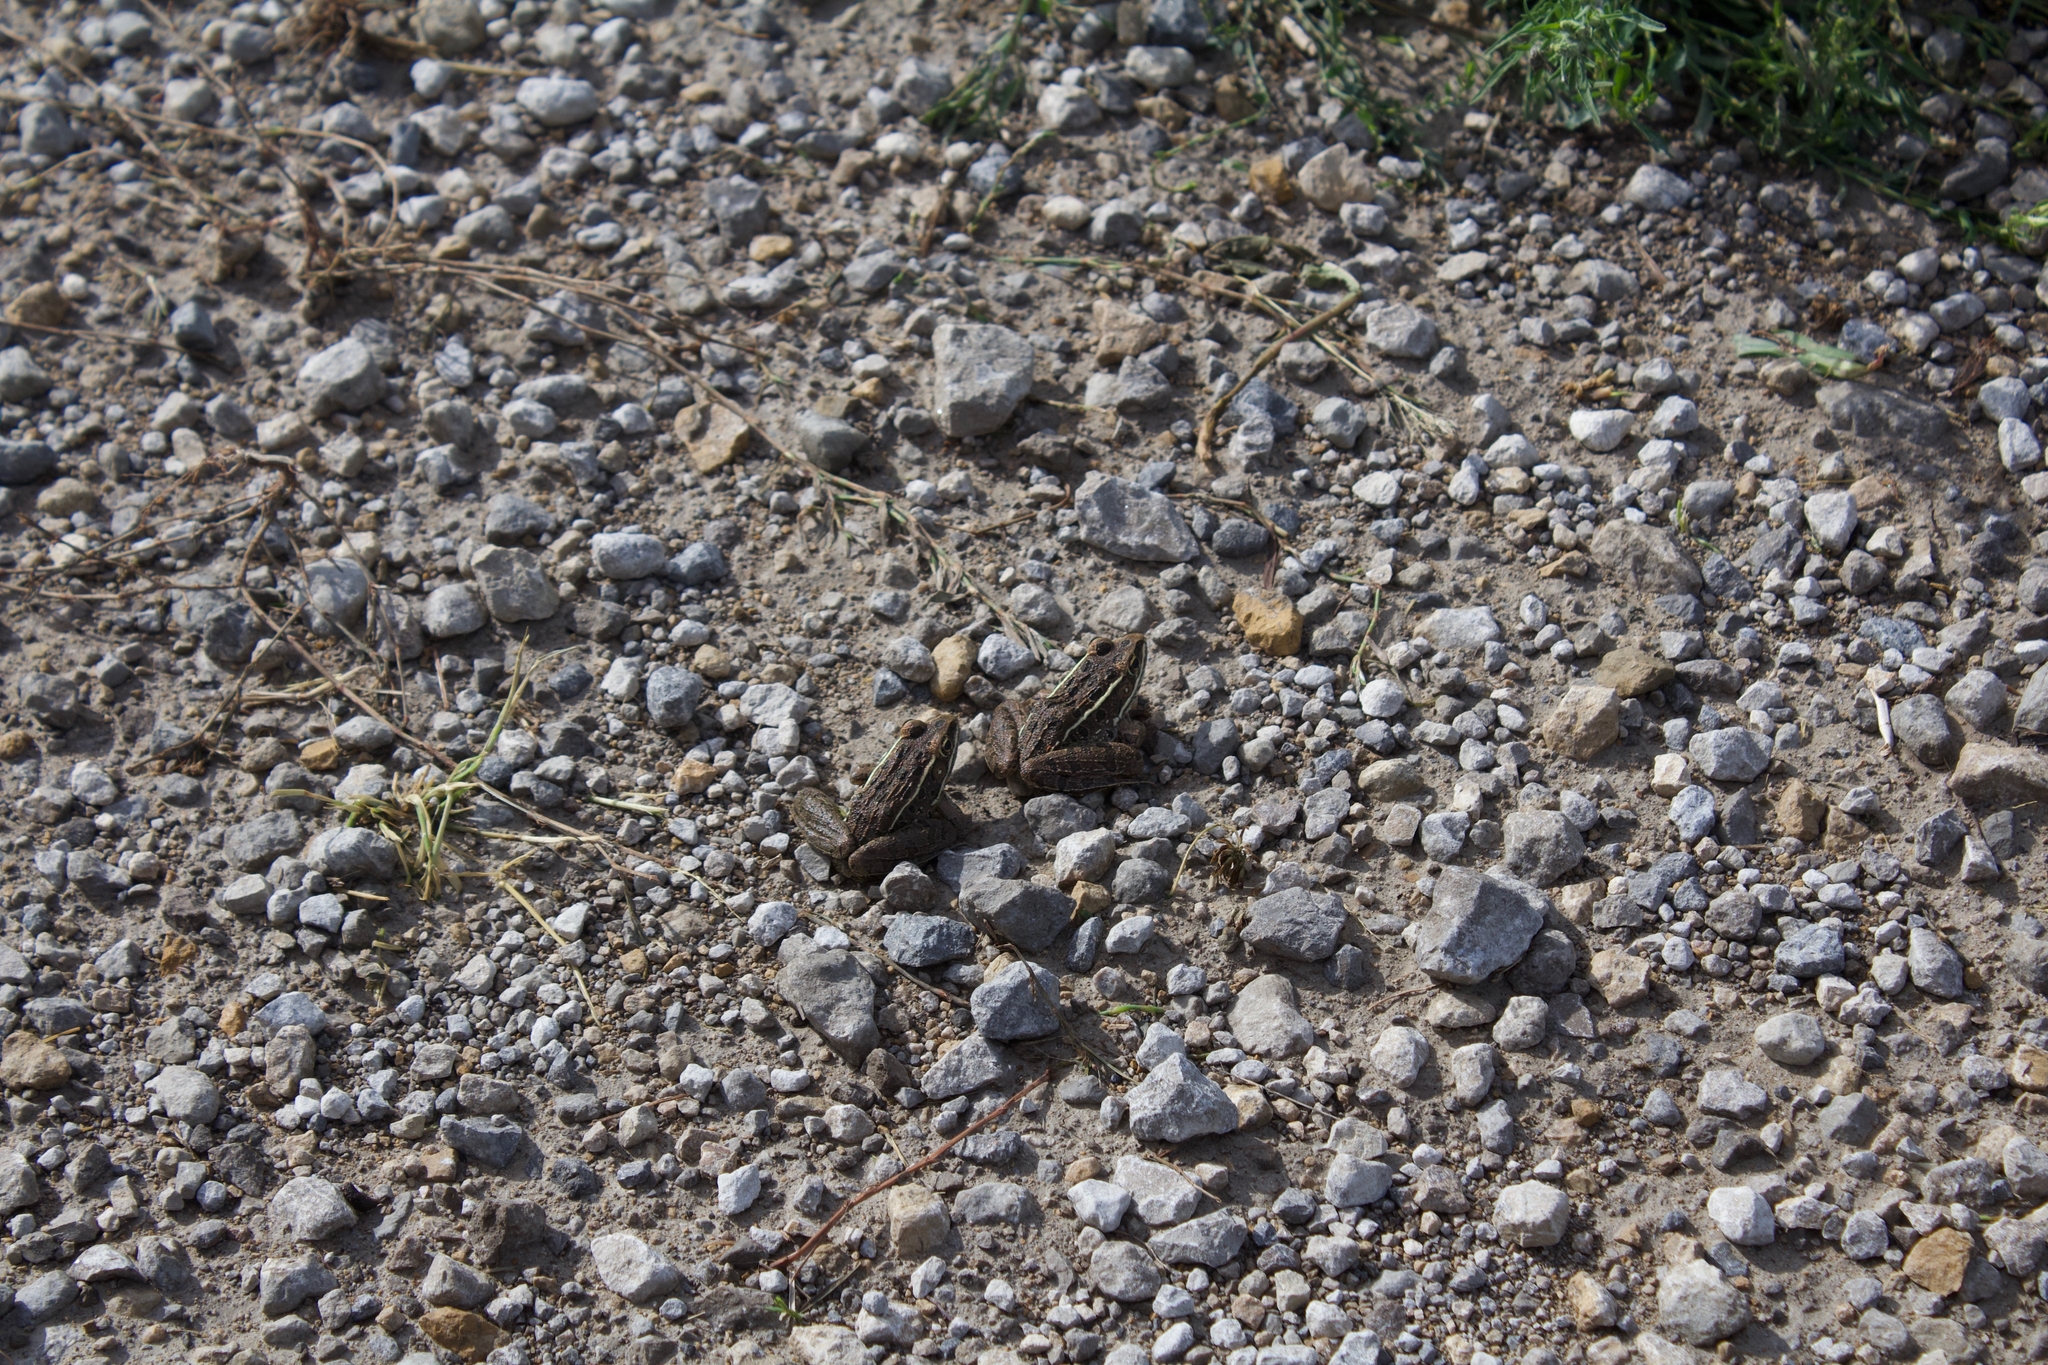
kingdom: Animalia
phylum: Chordata
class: Amphibia
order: Anura
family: Ranidae
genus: Lithobates
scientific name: Lithobates blairi
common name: Plains leopard frog
